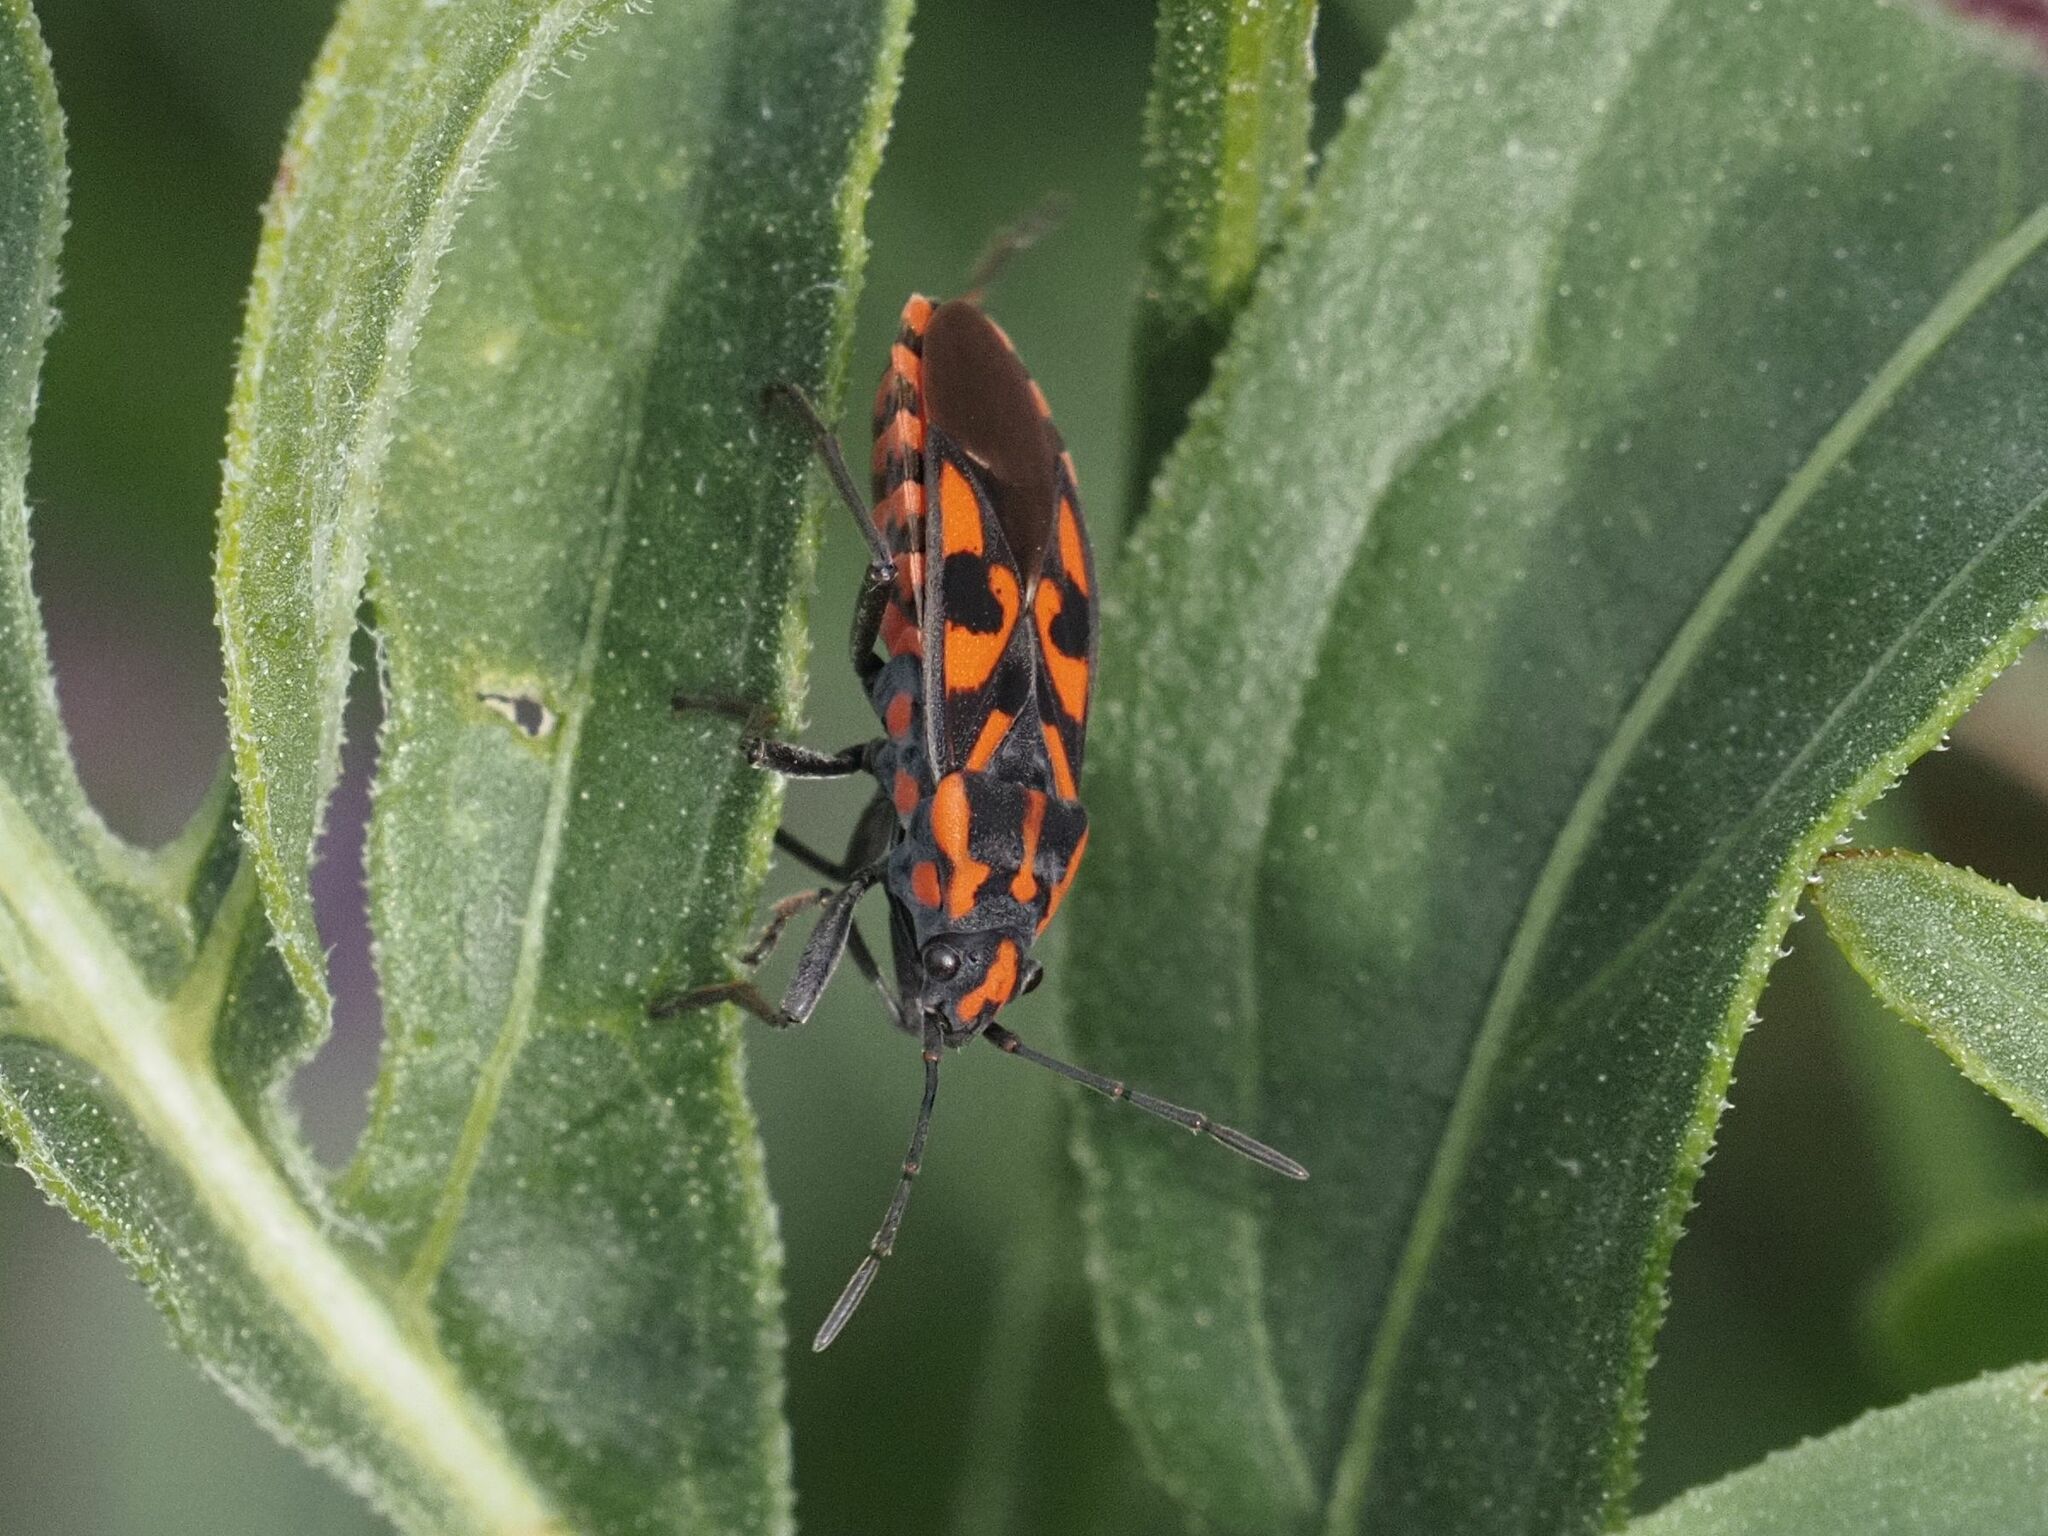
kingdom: Animalia
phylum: Arthropoda
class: Insecta
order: Hemiptera
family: Lygaeidae
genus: Spilostethus
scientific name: Spilostethus saxatilis
